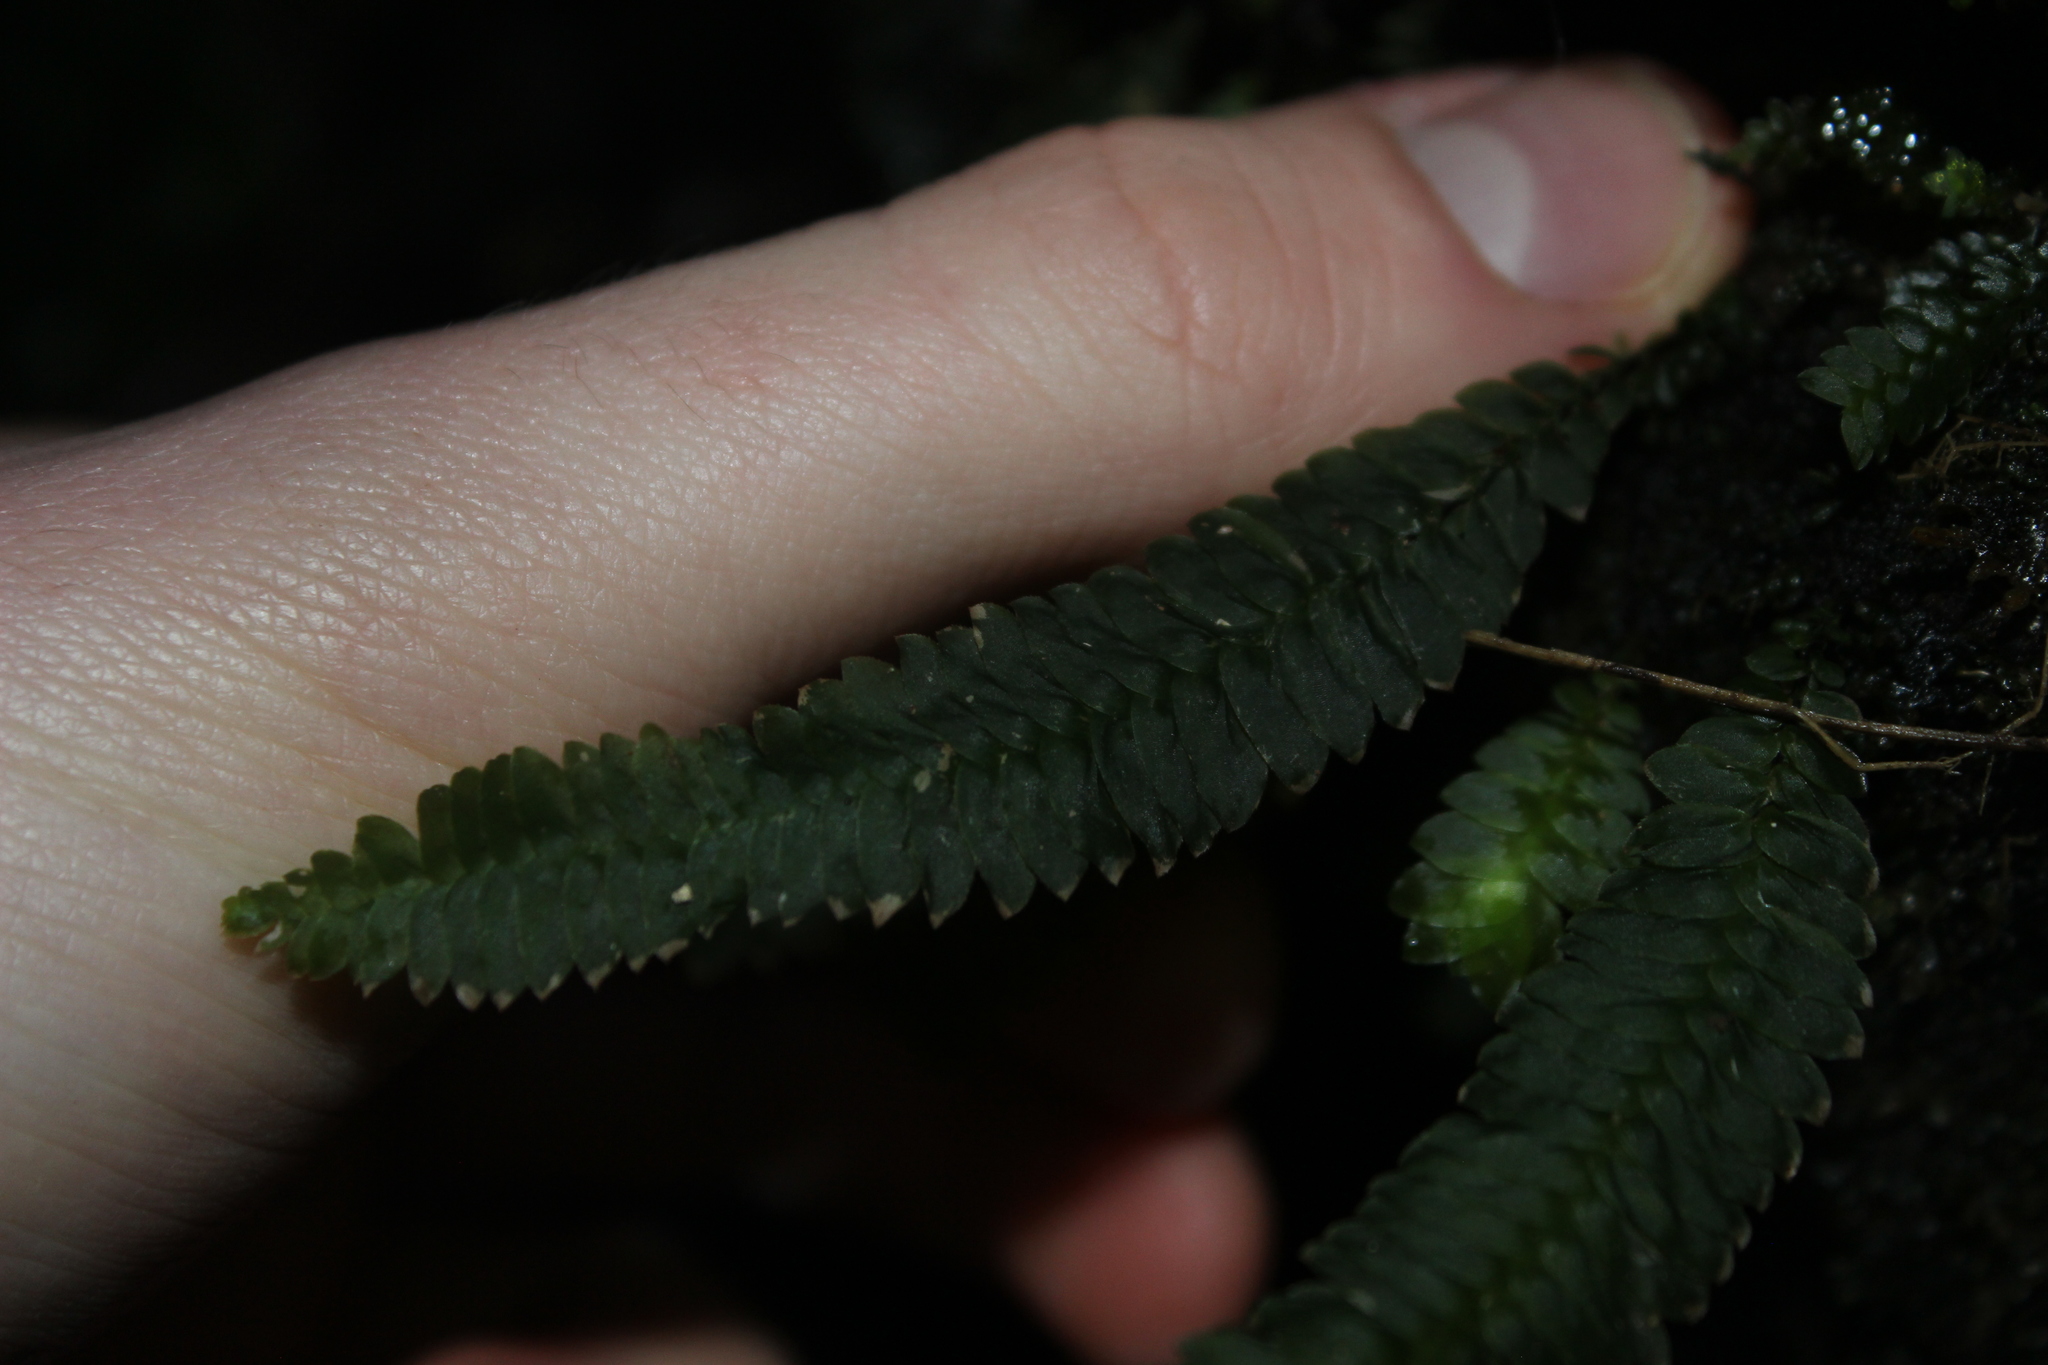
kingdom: Plantae
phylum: Bryophyta
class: Bryopsida
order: Hypopterygiales
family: Hypopterygiaceae
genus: Cyathophorum
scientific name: Cyathophorum bulbosum
